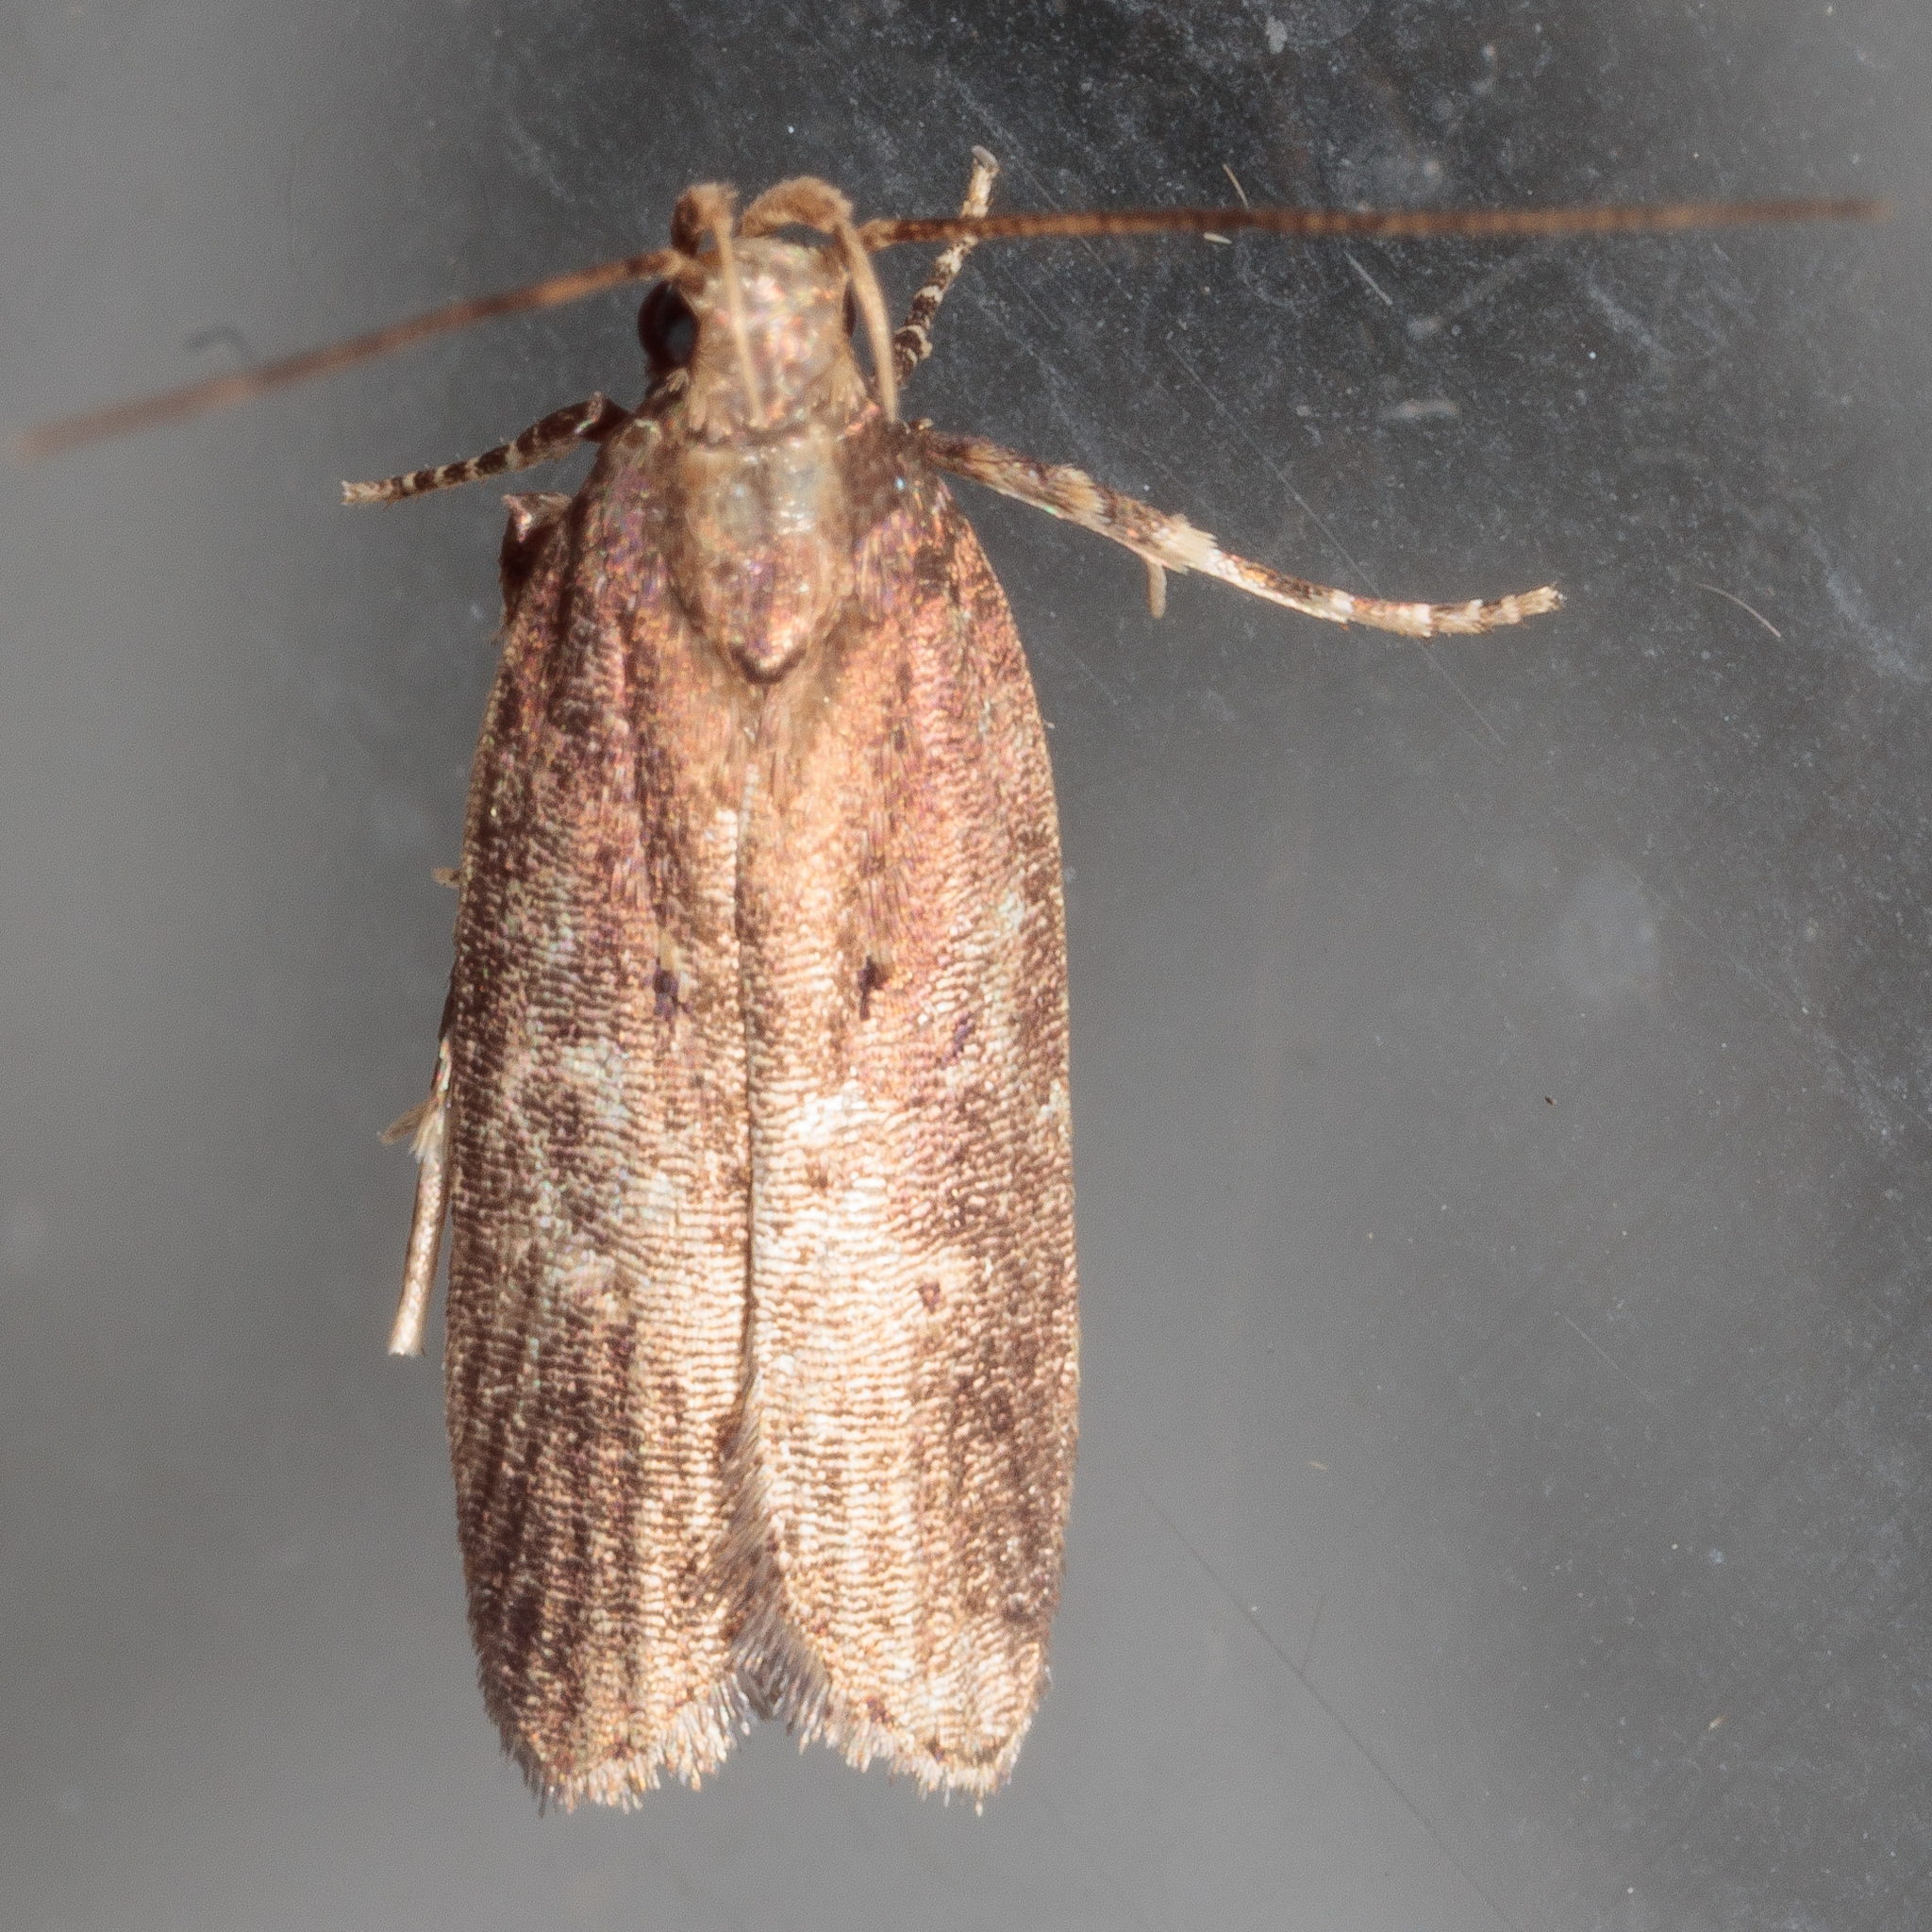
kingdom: Animalia
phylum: Arthropoda
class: Insecta
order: Lepidoptera
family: Gelechiidae
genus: Chionodes
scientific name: Chionodes discoocellella
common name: Eye-ringed chionodes moth
